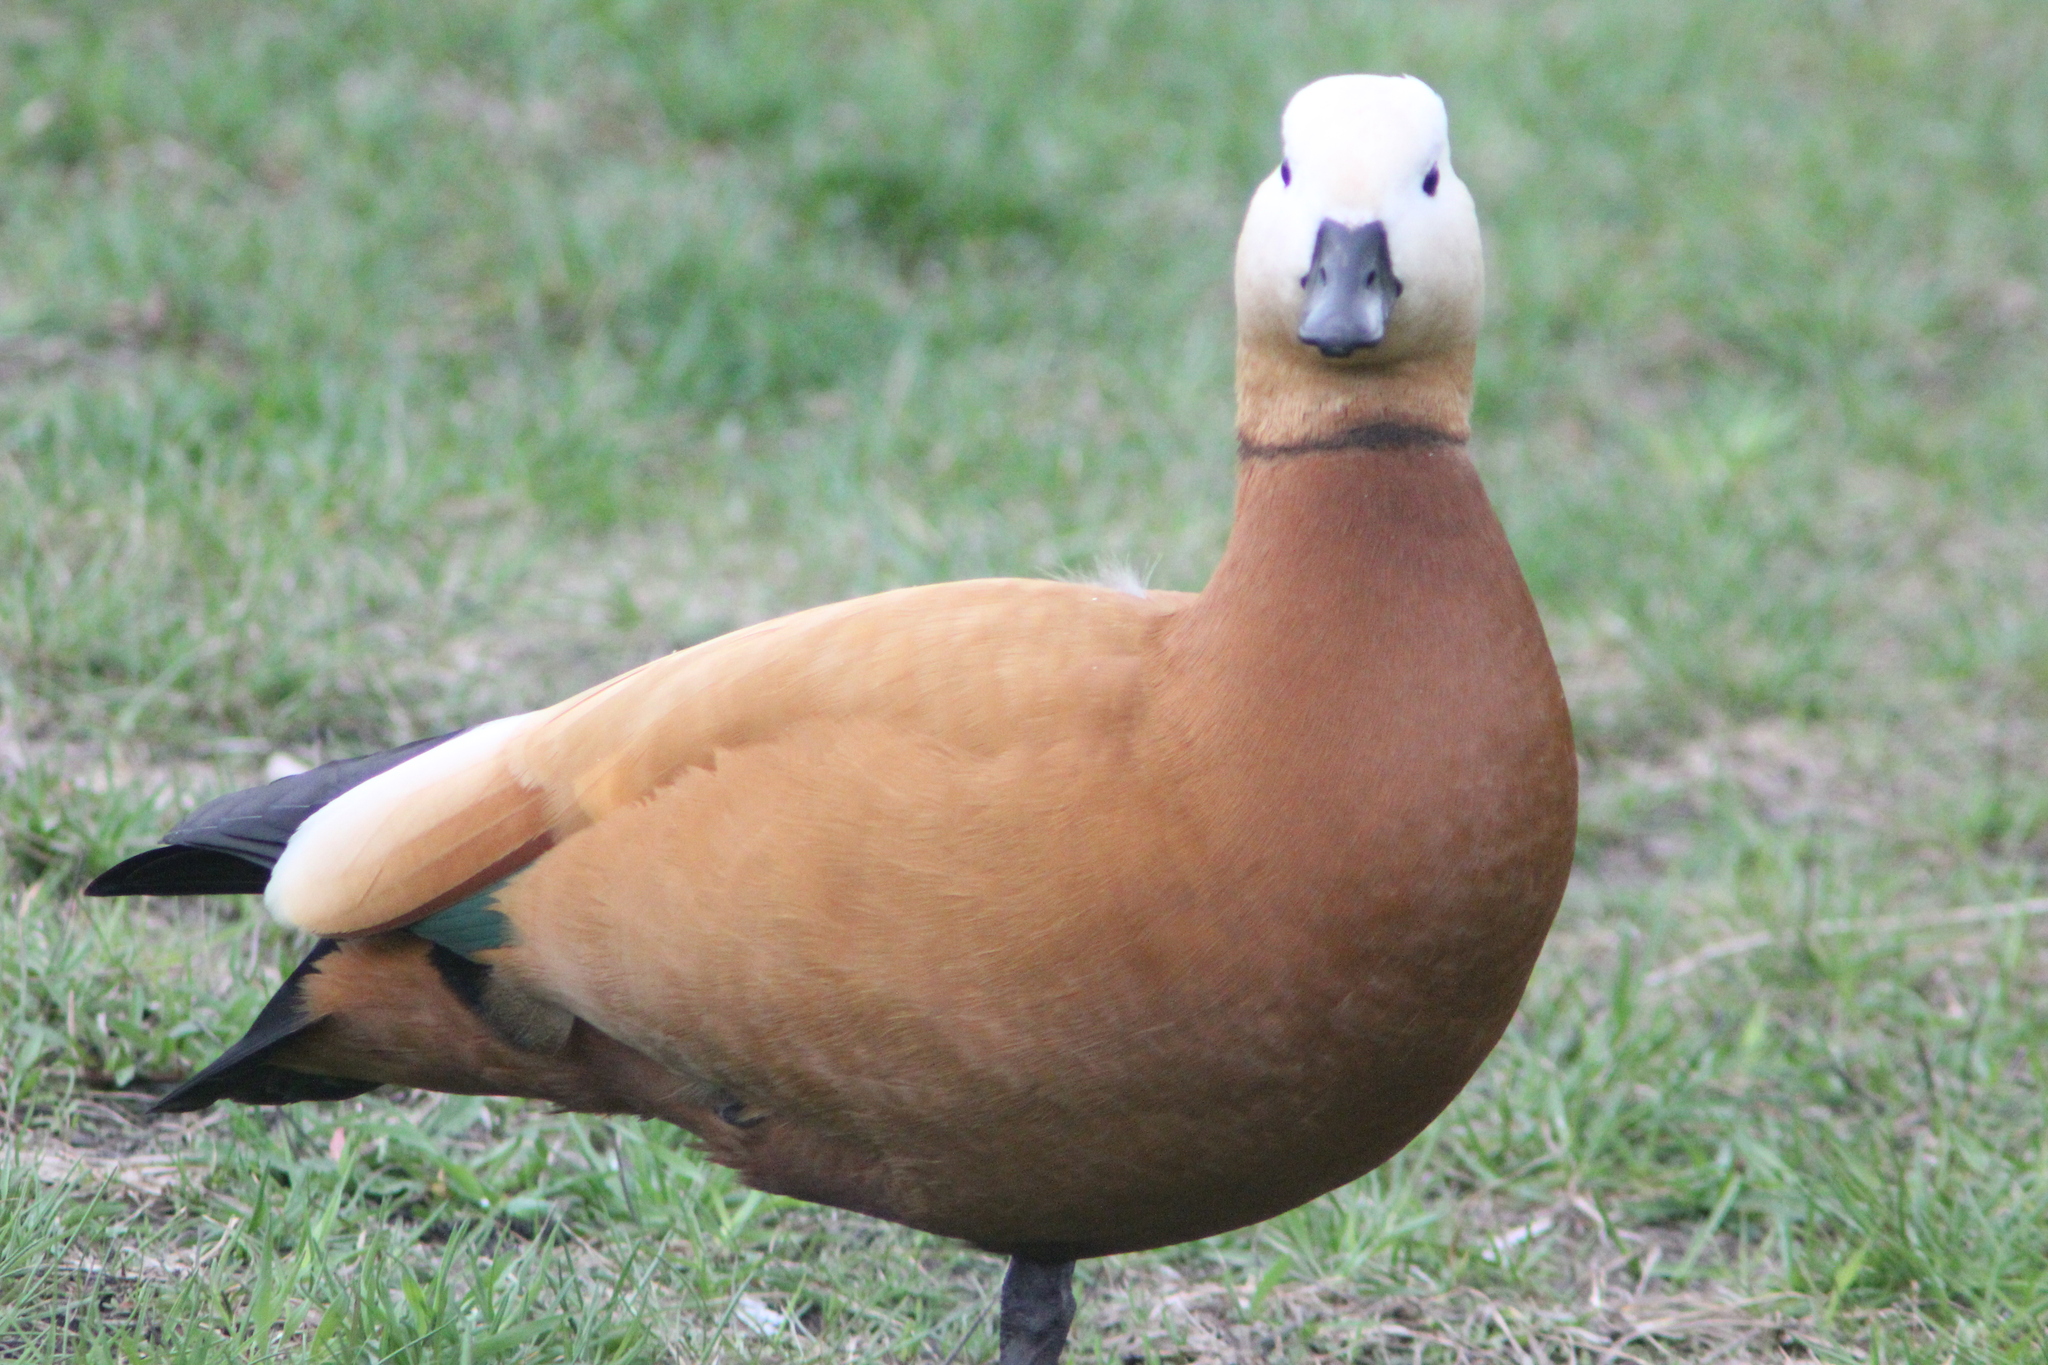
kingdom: Animalia
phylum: Chordata
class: Aves
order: Anseriformes
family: Anatidae
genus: Tadorna
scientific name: Tadorna ferruginea
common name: Ruddy shelduck
